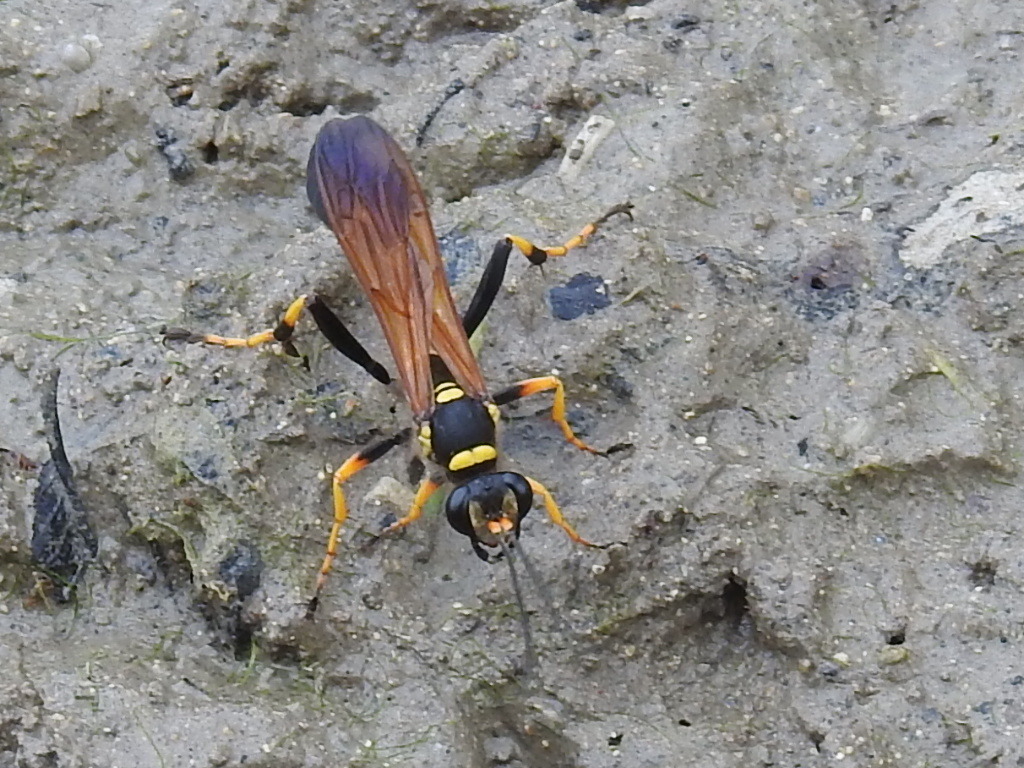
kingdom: Animalia
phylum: Arthropoda
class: Insecta
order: Hymenoptera
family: Sphecidae
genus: Sceliphron
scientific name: Sceliphron caementarium
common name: Mud dauber
